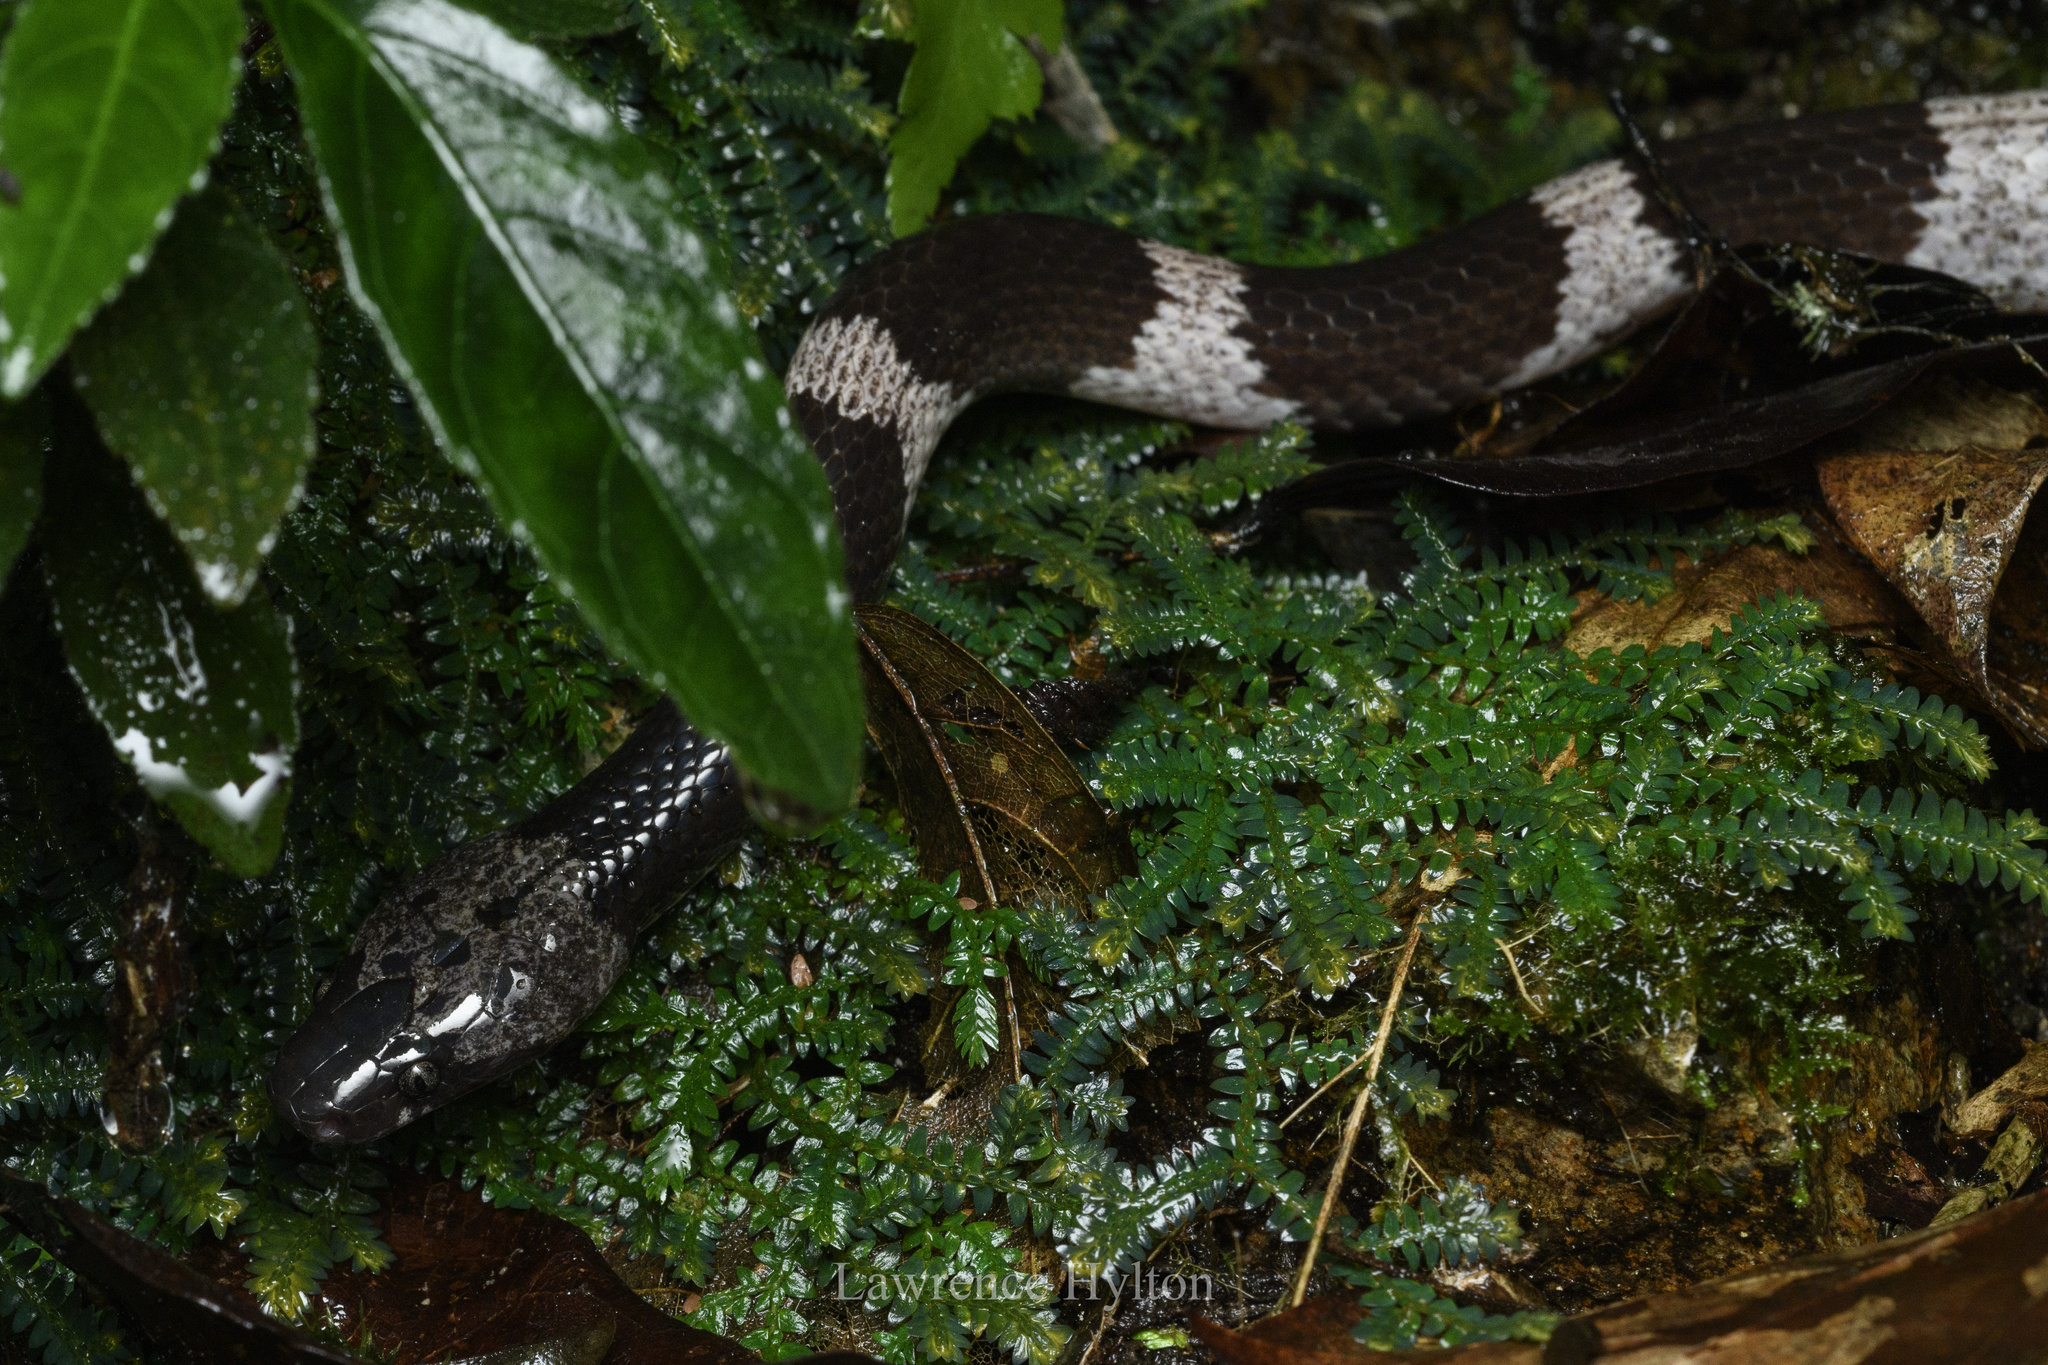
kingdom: Animalia
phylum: Chordata
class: Squamata
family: Colubridae
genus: Lycodon
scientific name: Lycodon futsingensis
